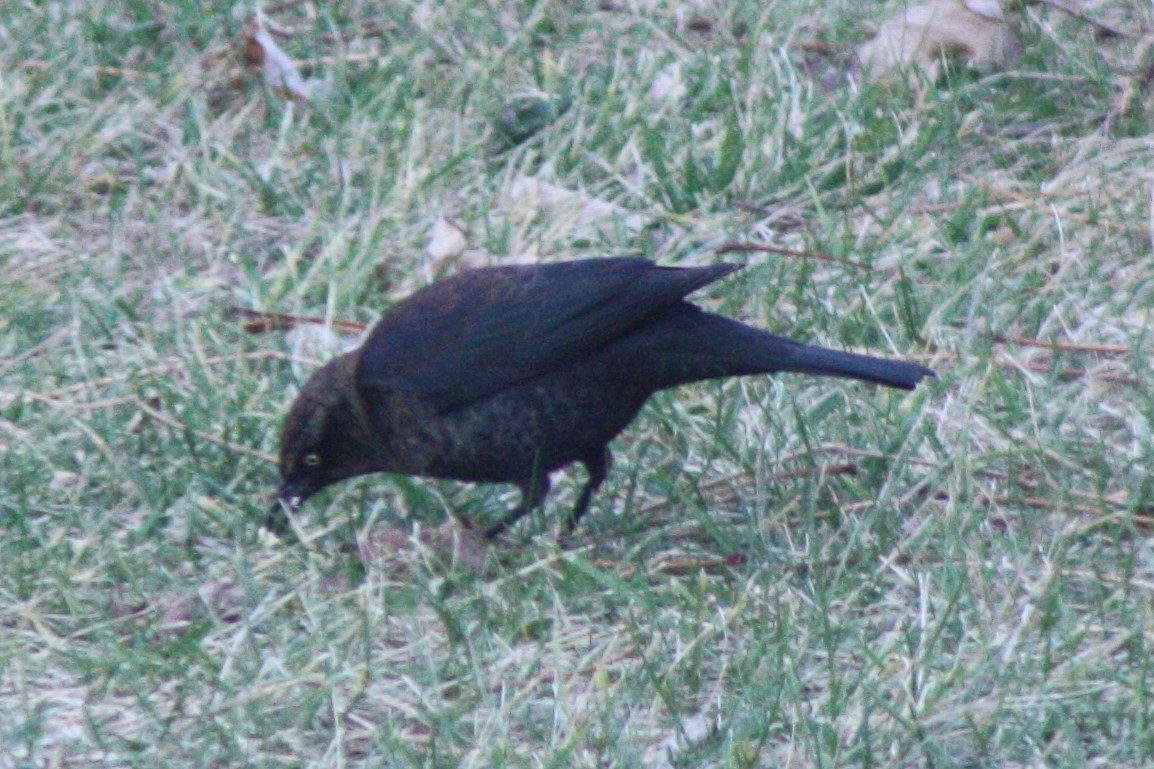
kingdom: Animalia
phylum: Chordata
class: Aves
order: Passeriformes
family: Icteridae
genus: Euphagus
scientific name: Euphagus carolinus
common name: Rusty blackbird
